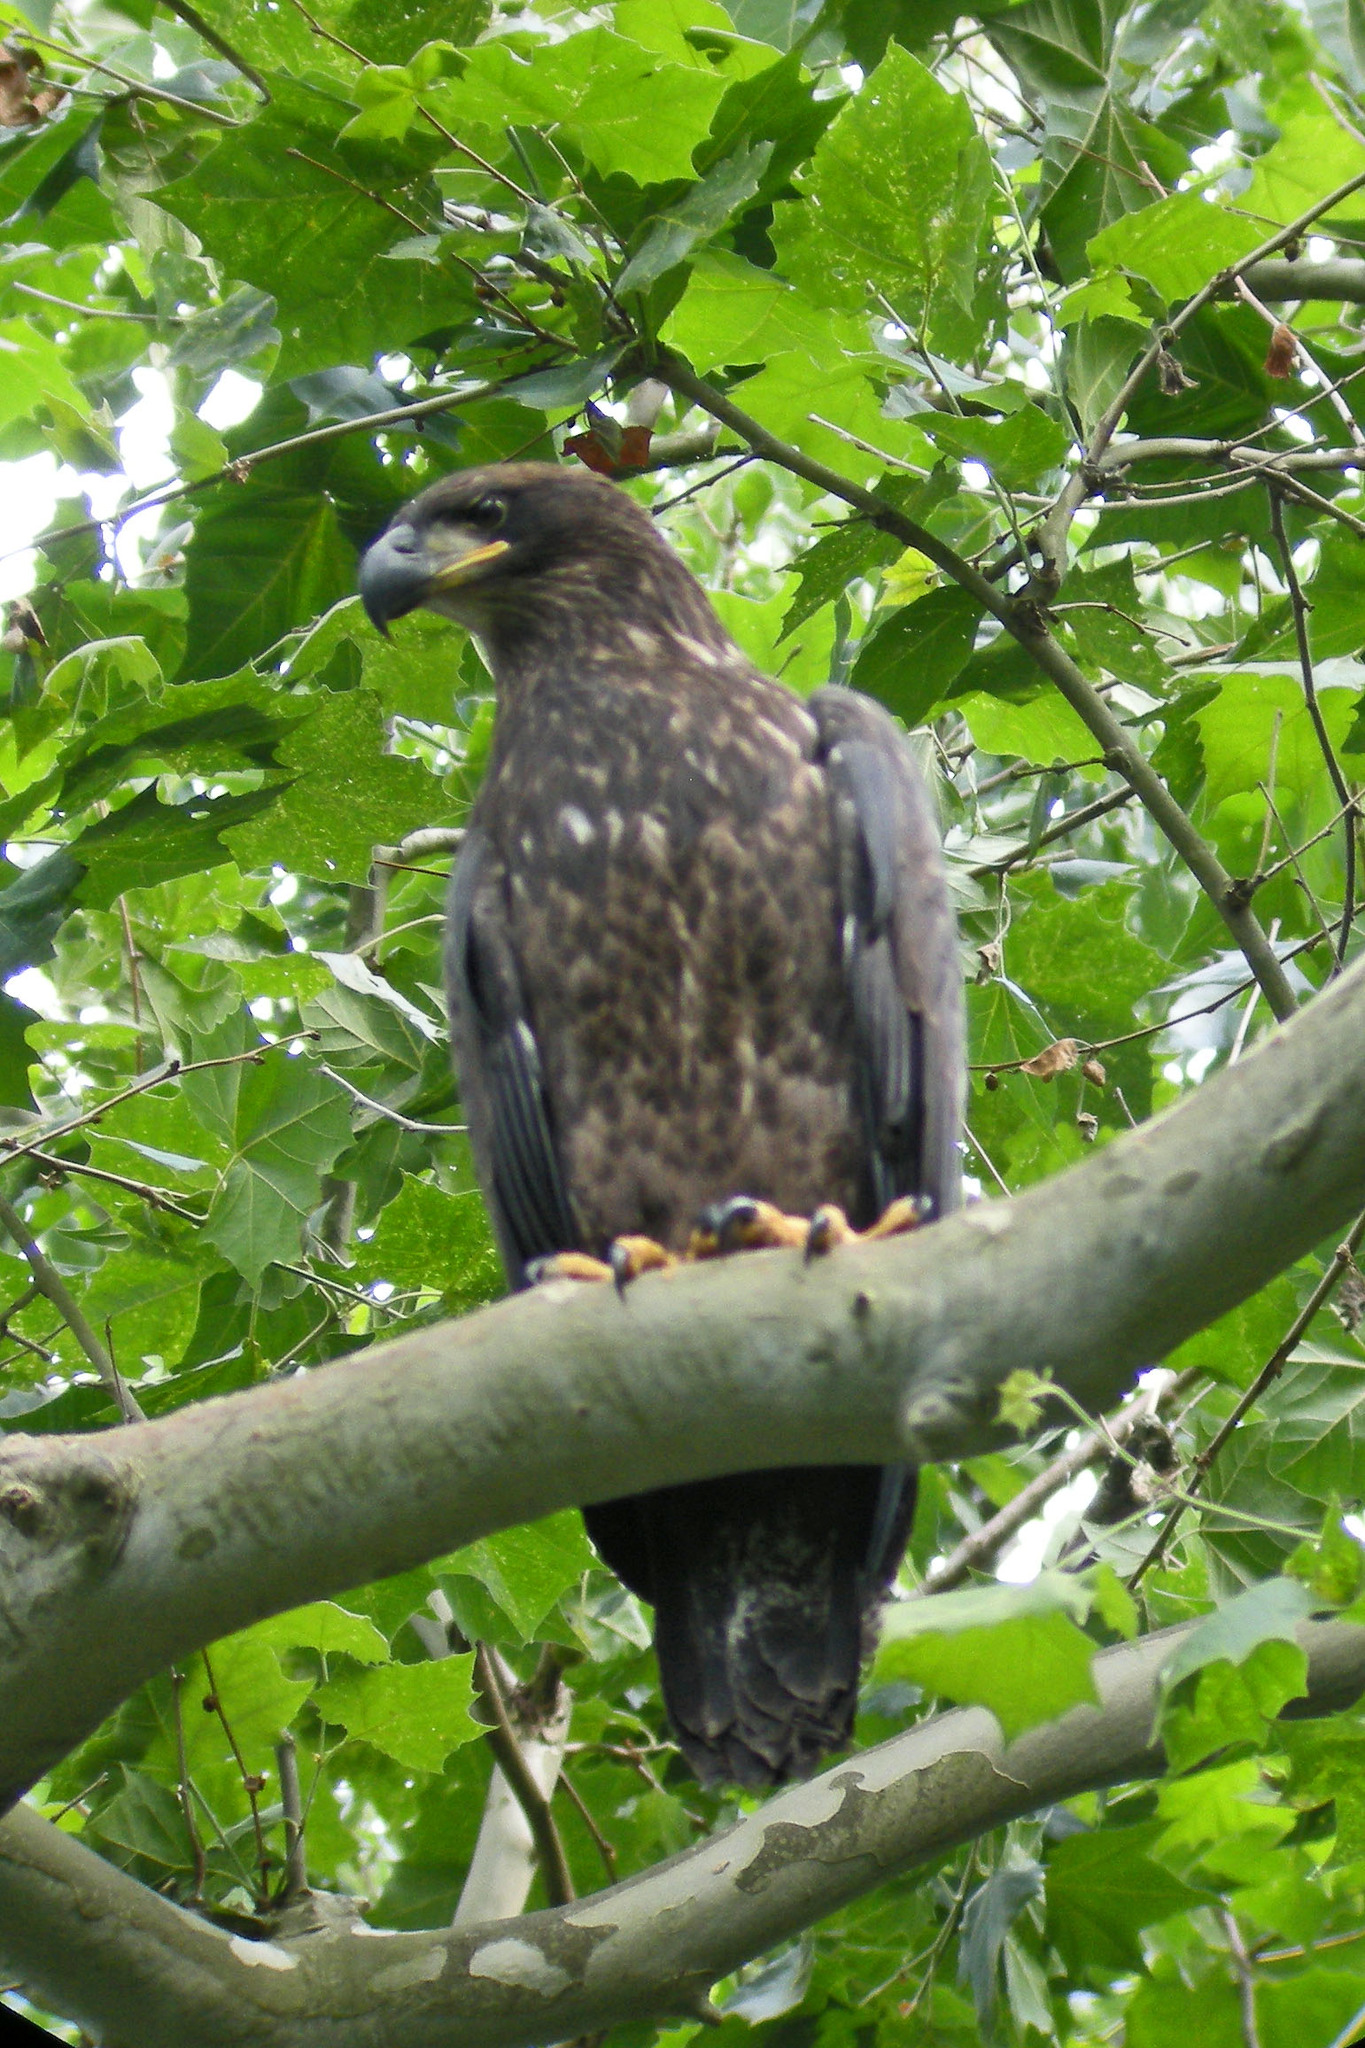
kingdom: Animalia
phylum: Chordata
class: Aves
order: Accipitriformes
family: Accipitridae
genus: Haliaeetus
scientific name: Haliaeetus leucocephalus
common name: Bald eagle
